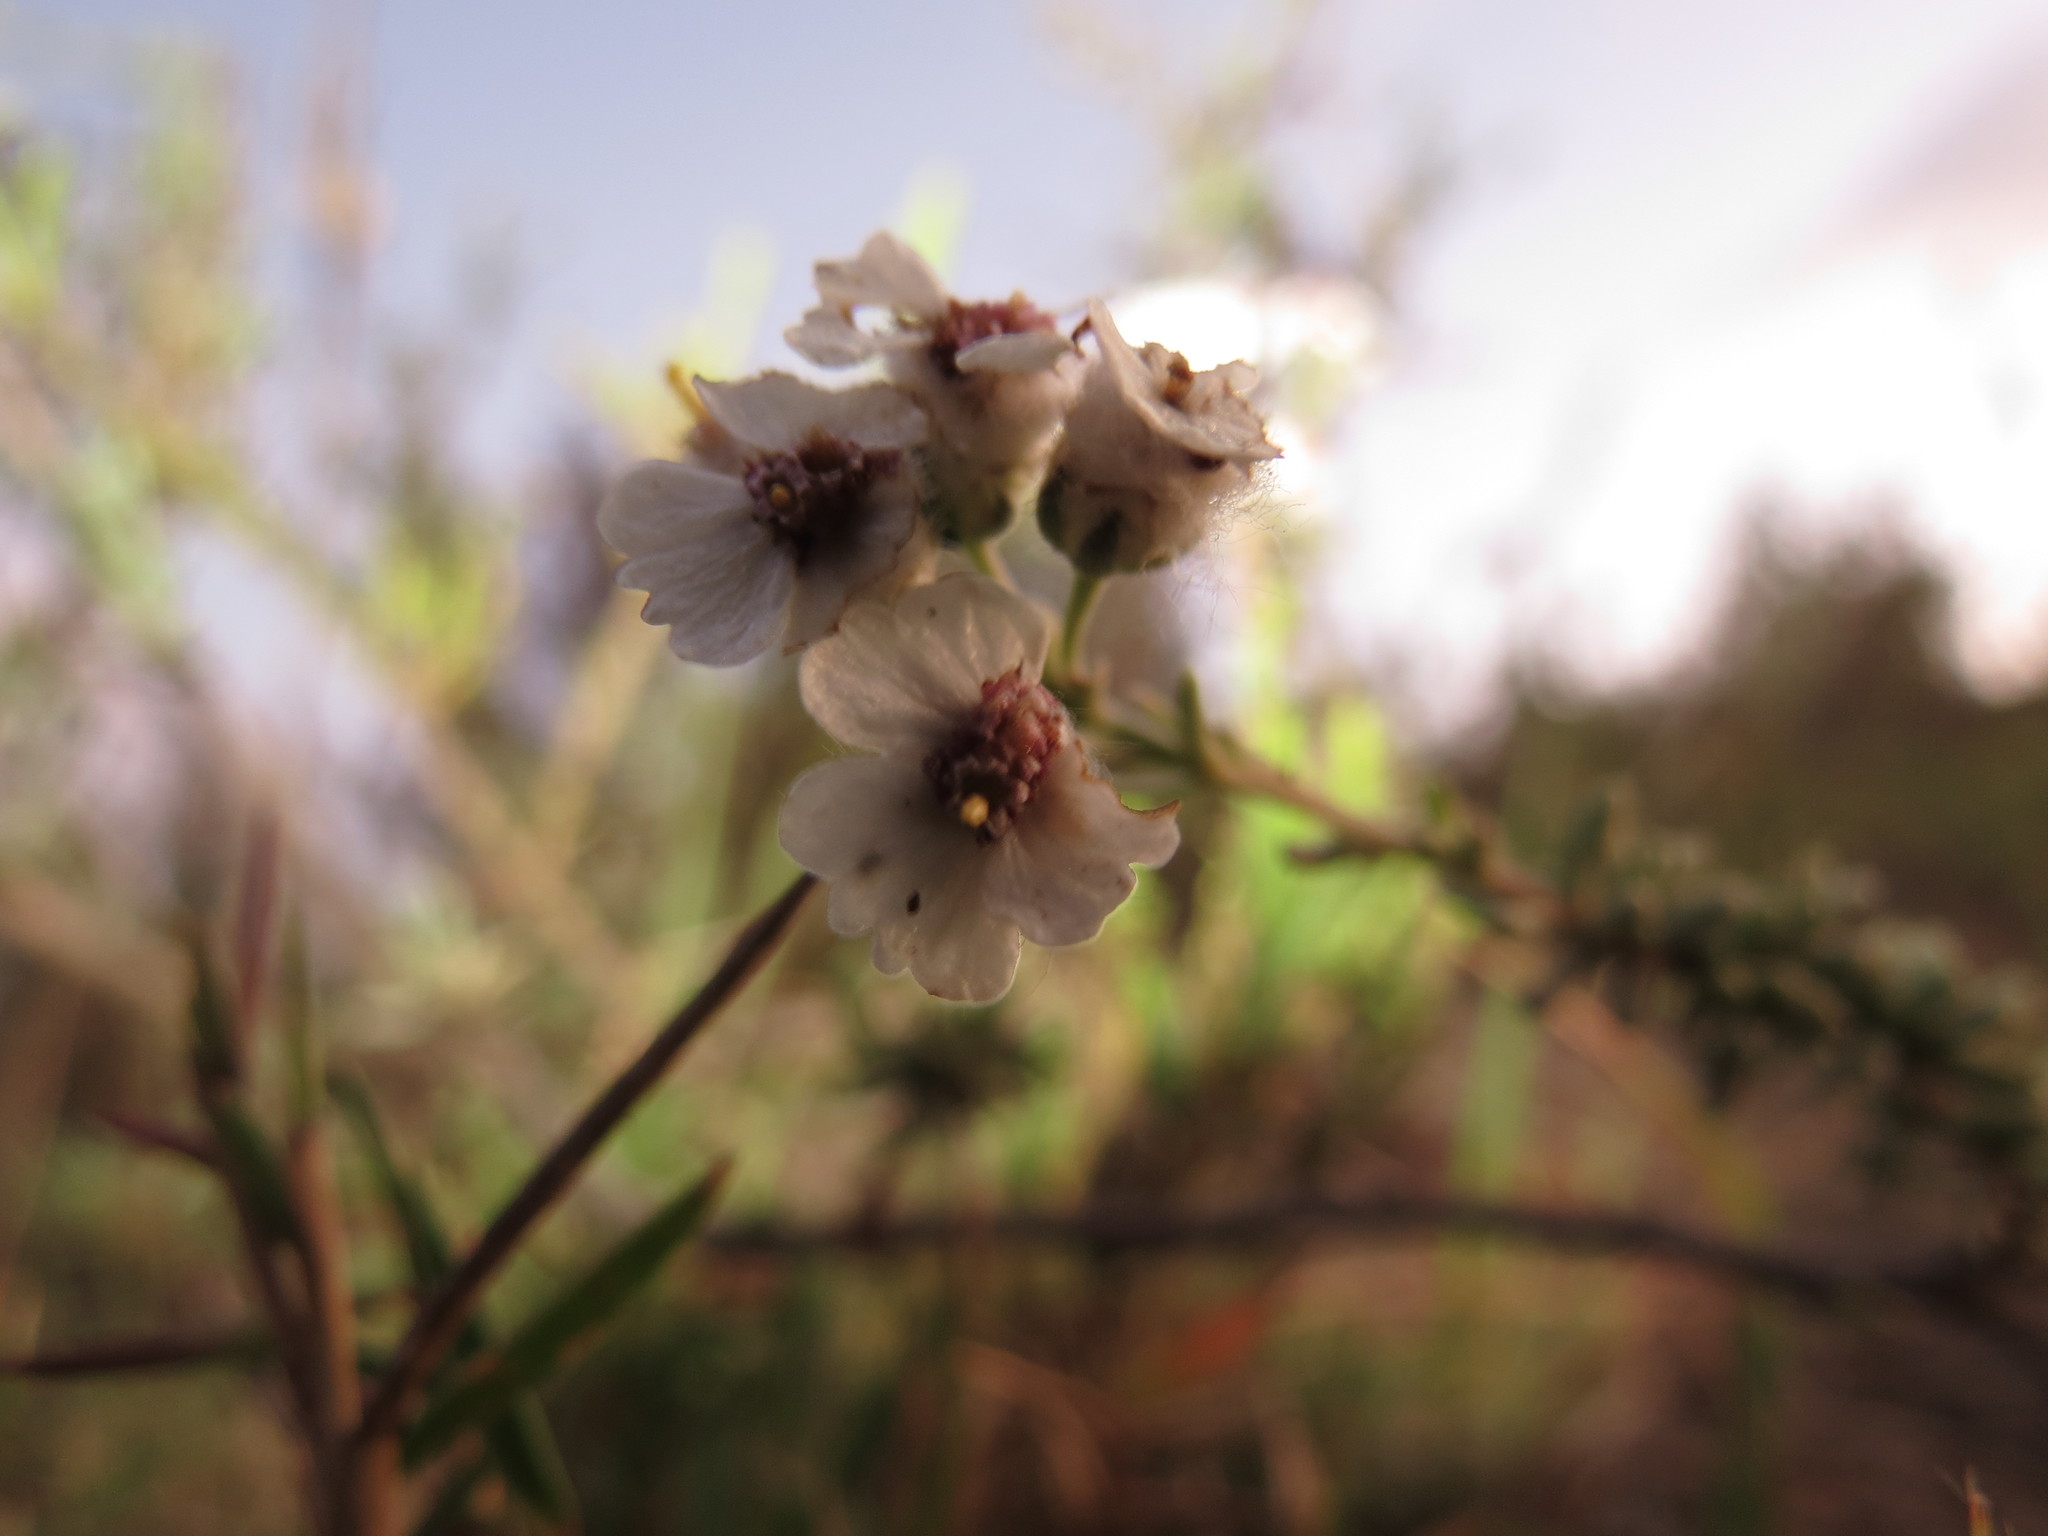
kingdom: Plantae
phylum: Tracheophyta
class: Magnoliopsida
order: Asterales
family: Asteraceae
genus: Eriocephalus
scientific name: Eriocephalus africanus
